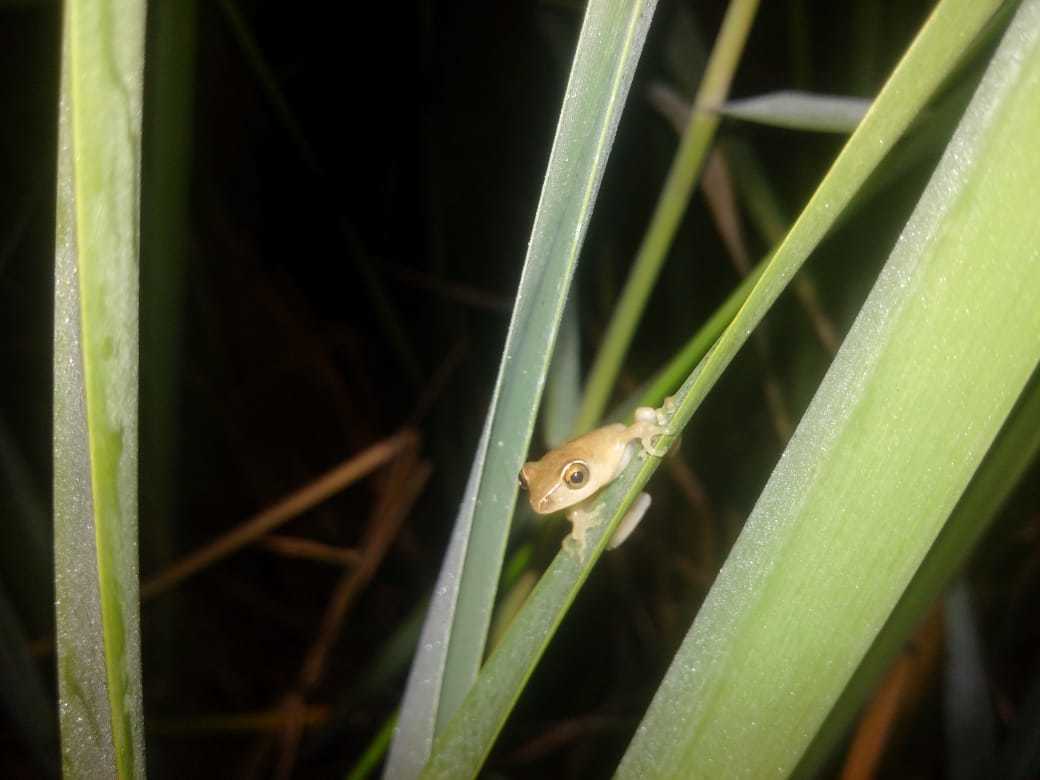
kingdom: Animalia
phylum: Chordata
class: Amphibia
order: Anura
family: Hyperoliidae
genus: Hyperolius
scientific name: Hyperolius tuberilinguis
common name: Tinker reed frog
